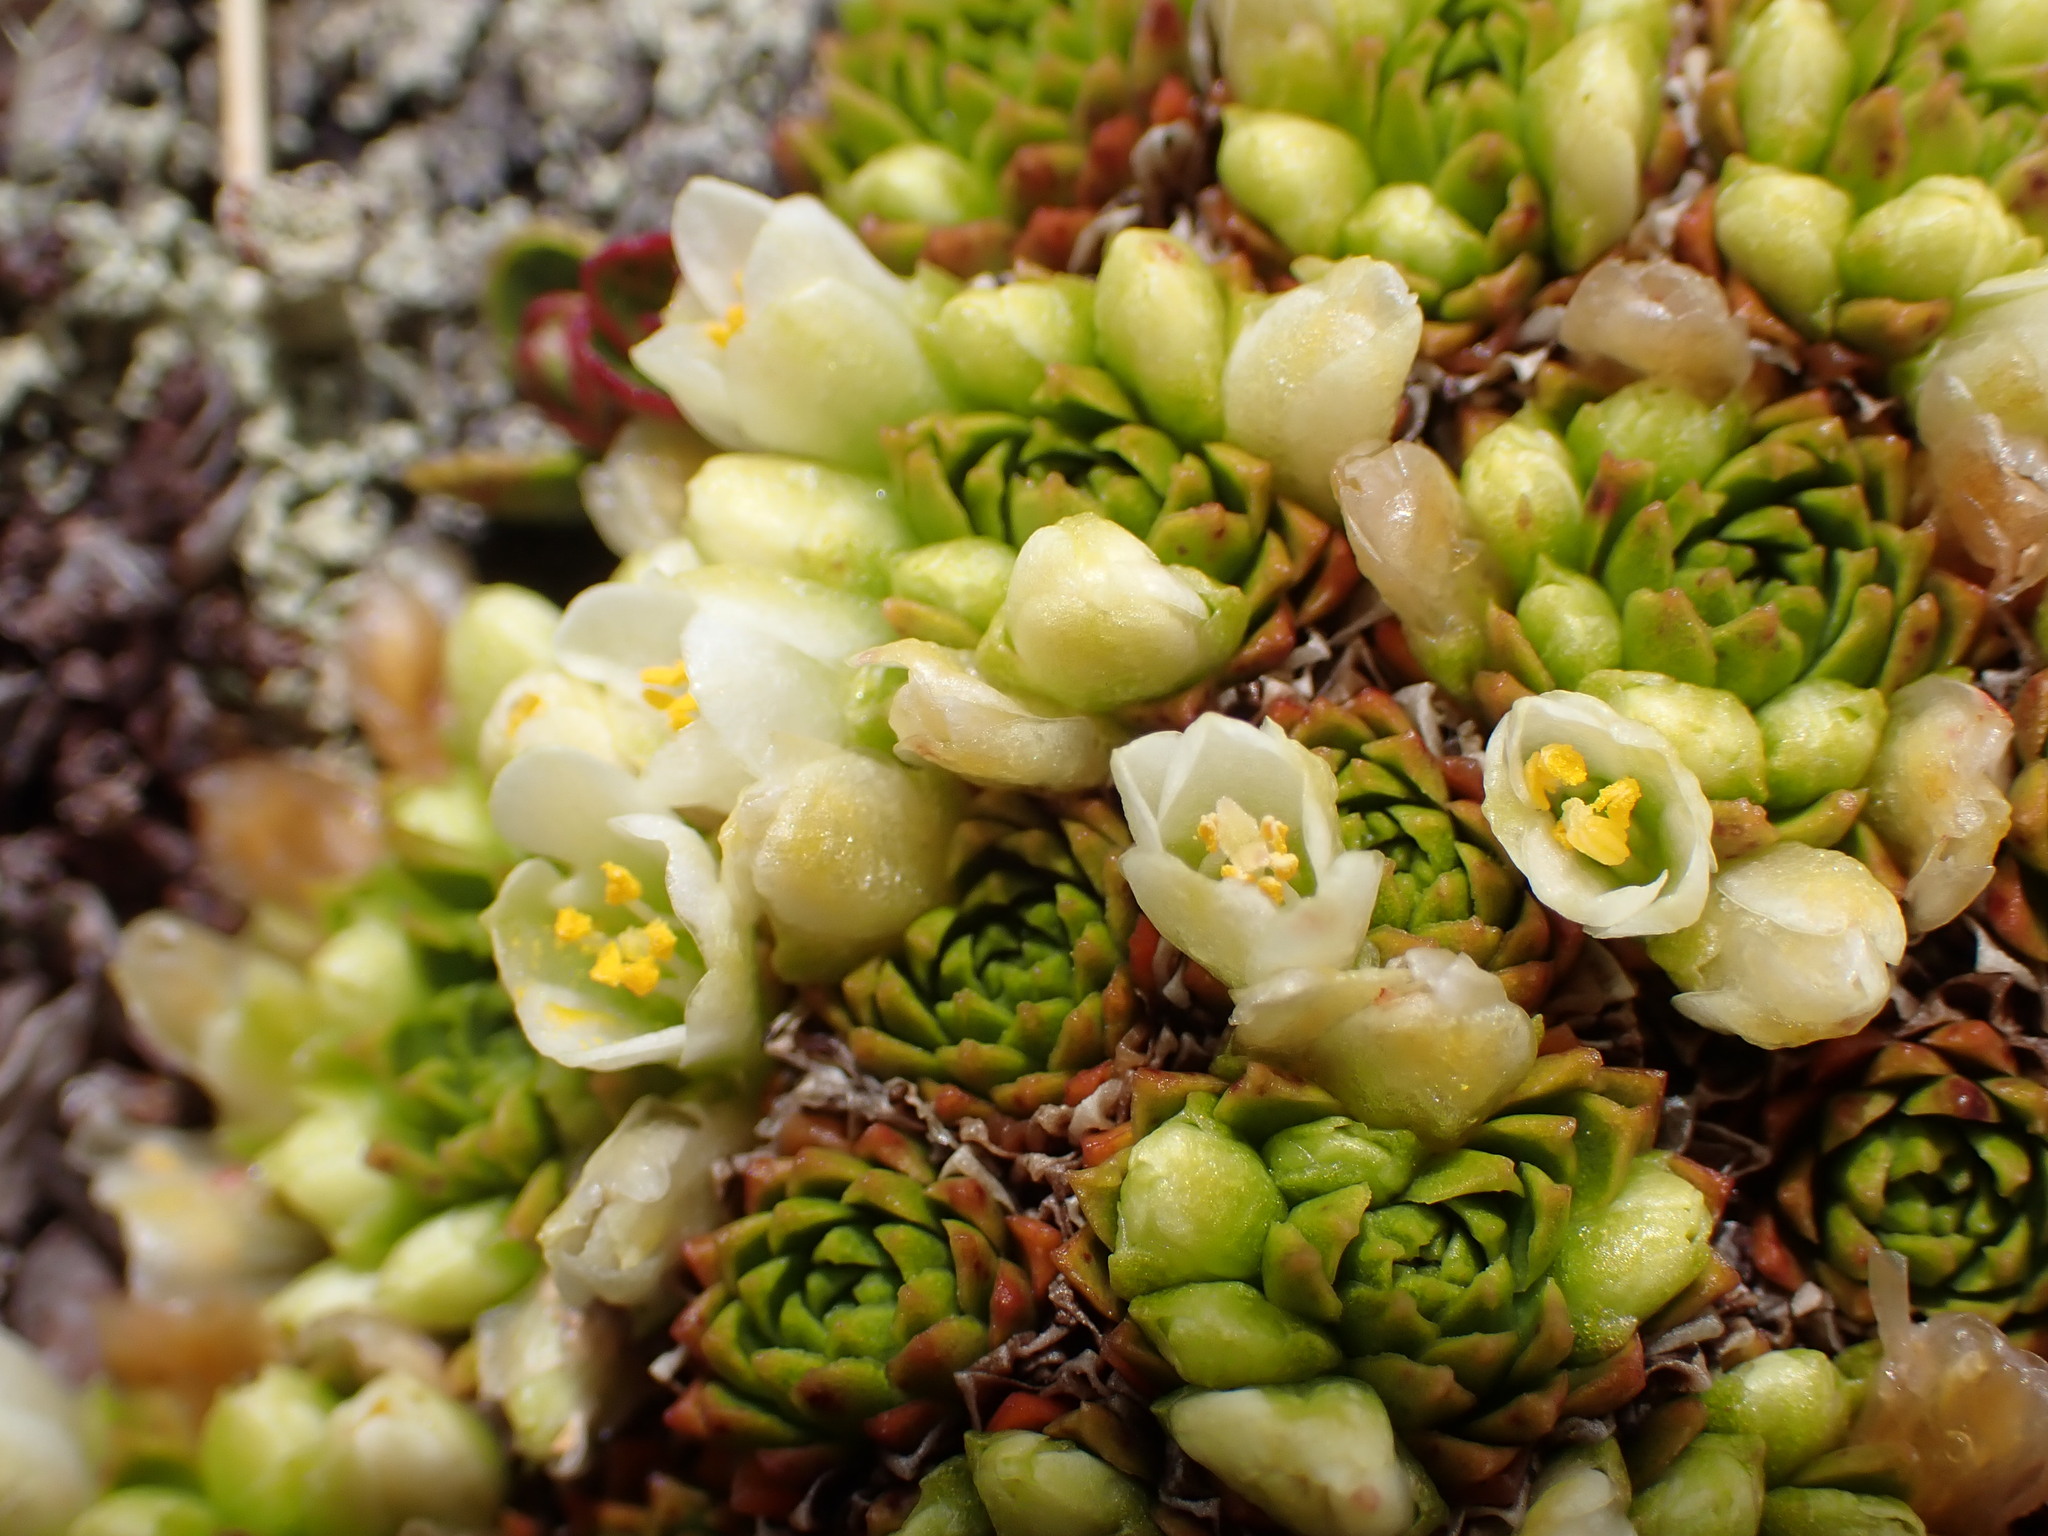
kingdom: Plantae
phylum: Tracheophyta
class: Magnoliopsida
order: Caryophyllales
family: Montiaceae
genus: Hectorella
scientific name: Hectorella caespitosa
